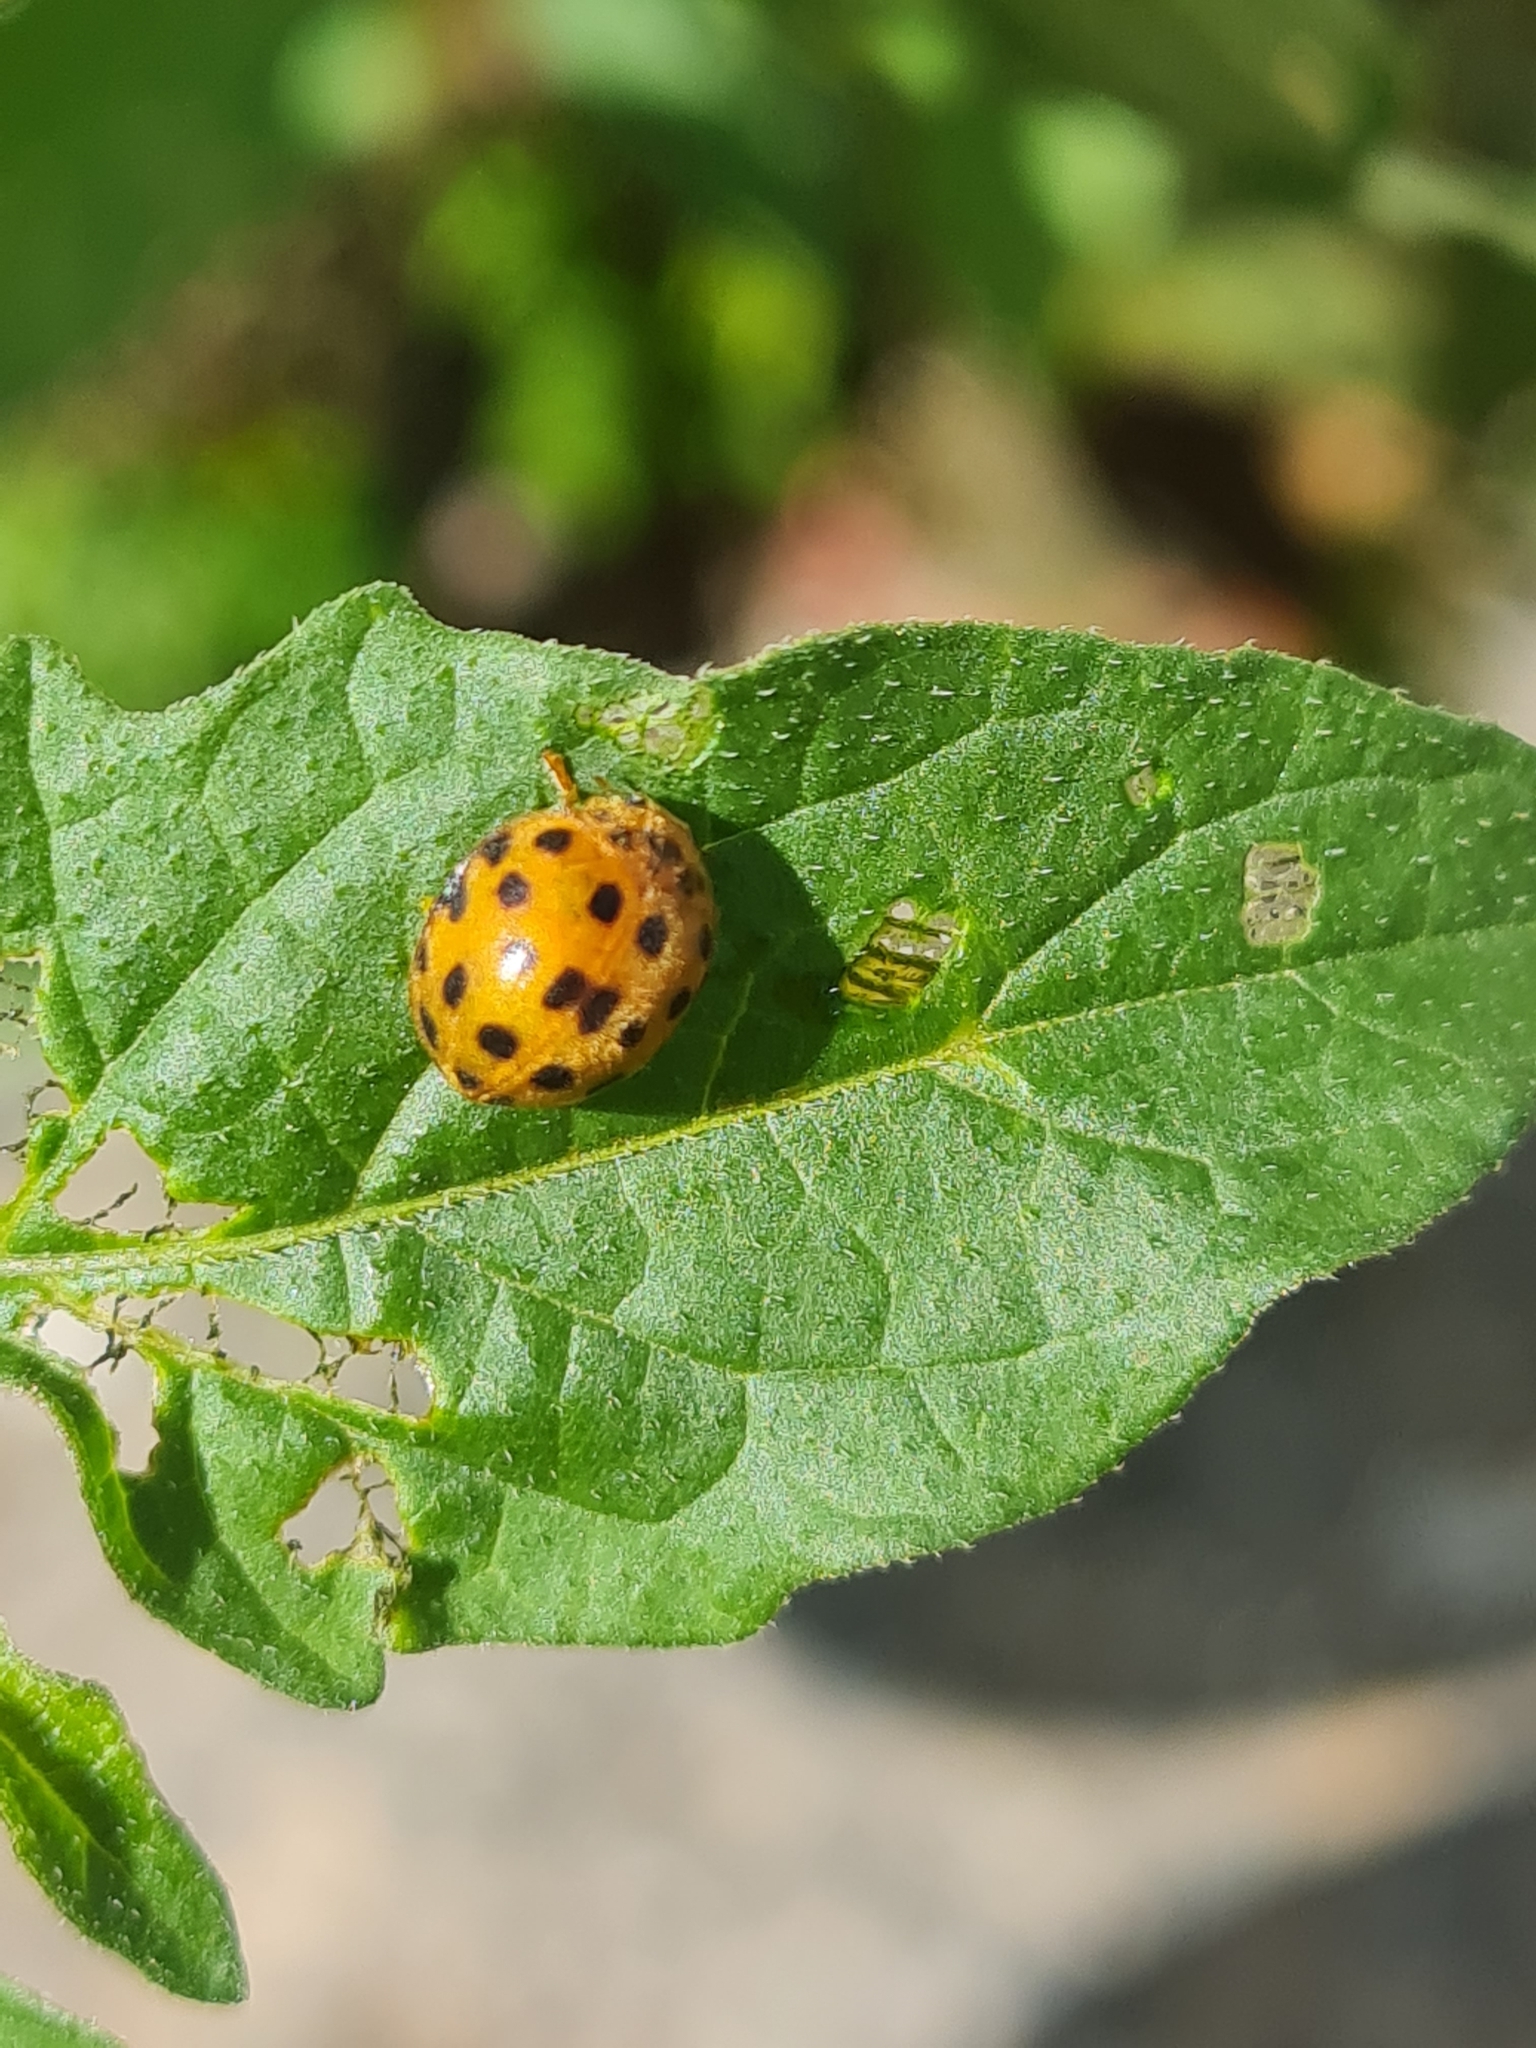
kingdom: Animalia
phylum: Arthropoda
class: Insecta
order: Coleoptera
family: Coccinellidae
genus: Henosepilachna
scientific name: Henosepilachna vigintioctopunctata
